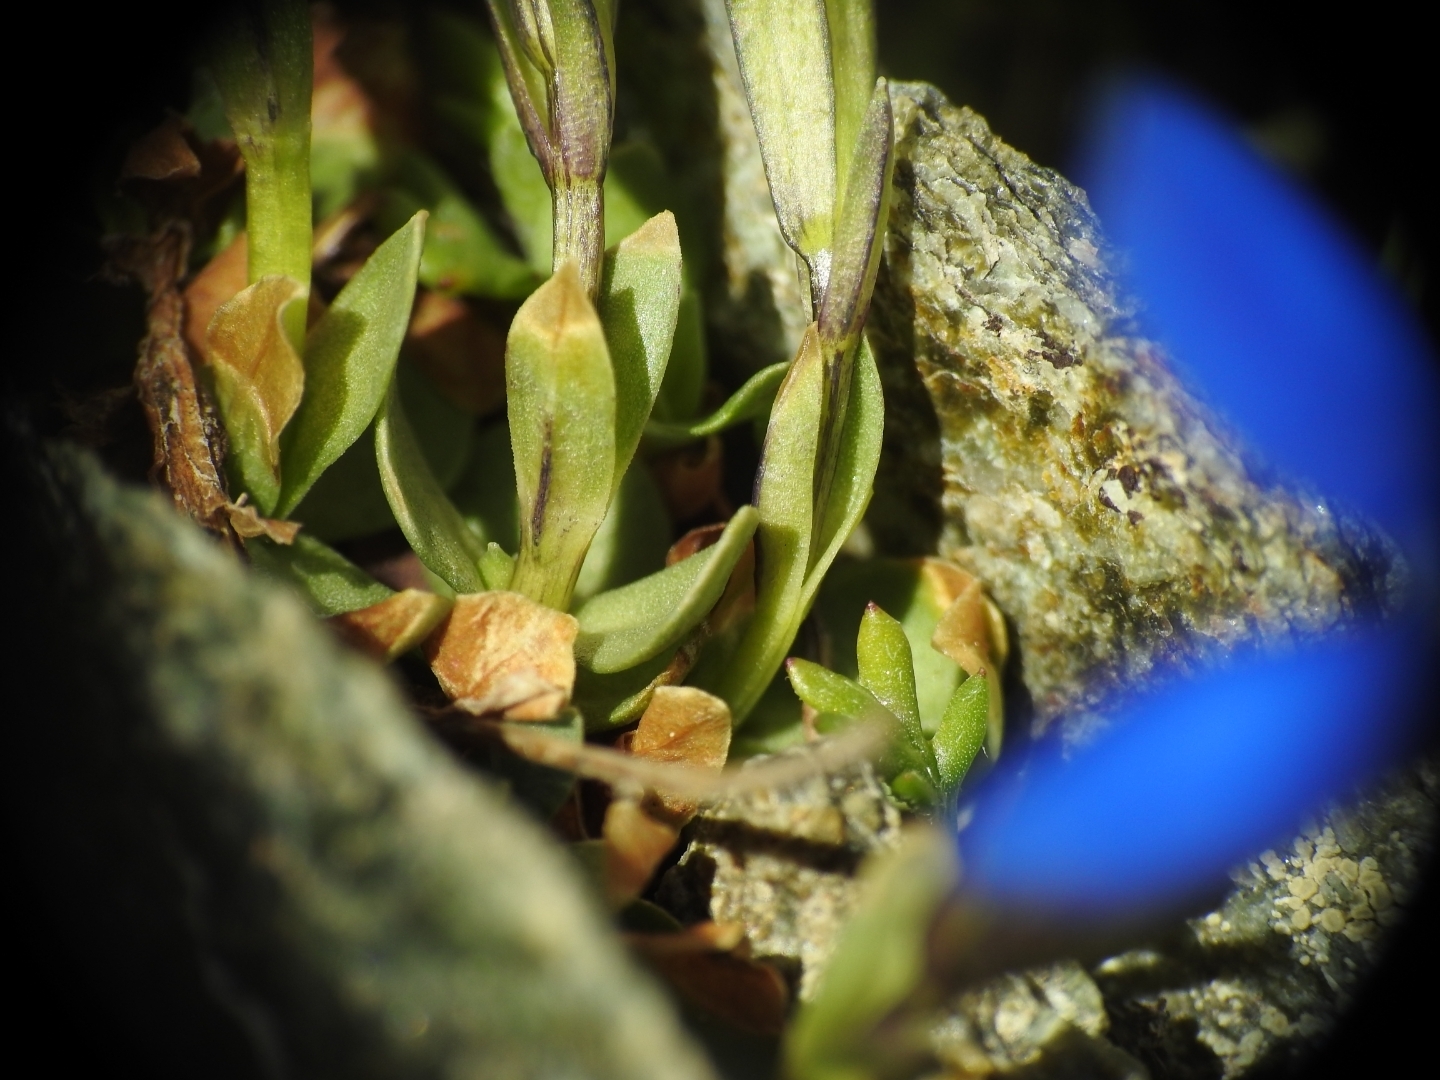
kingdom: Plantae
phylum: Tracheophyta
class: Magnoliopsida
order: Gentianales
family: Gentianaceae
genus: Gentiana
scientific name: Gentiana brachyphylla
